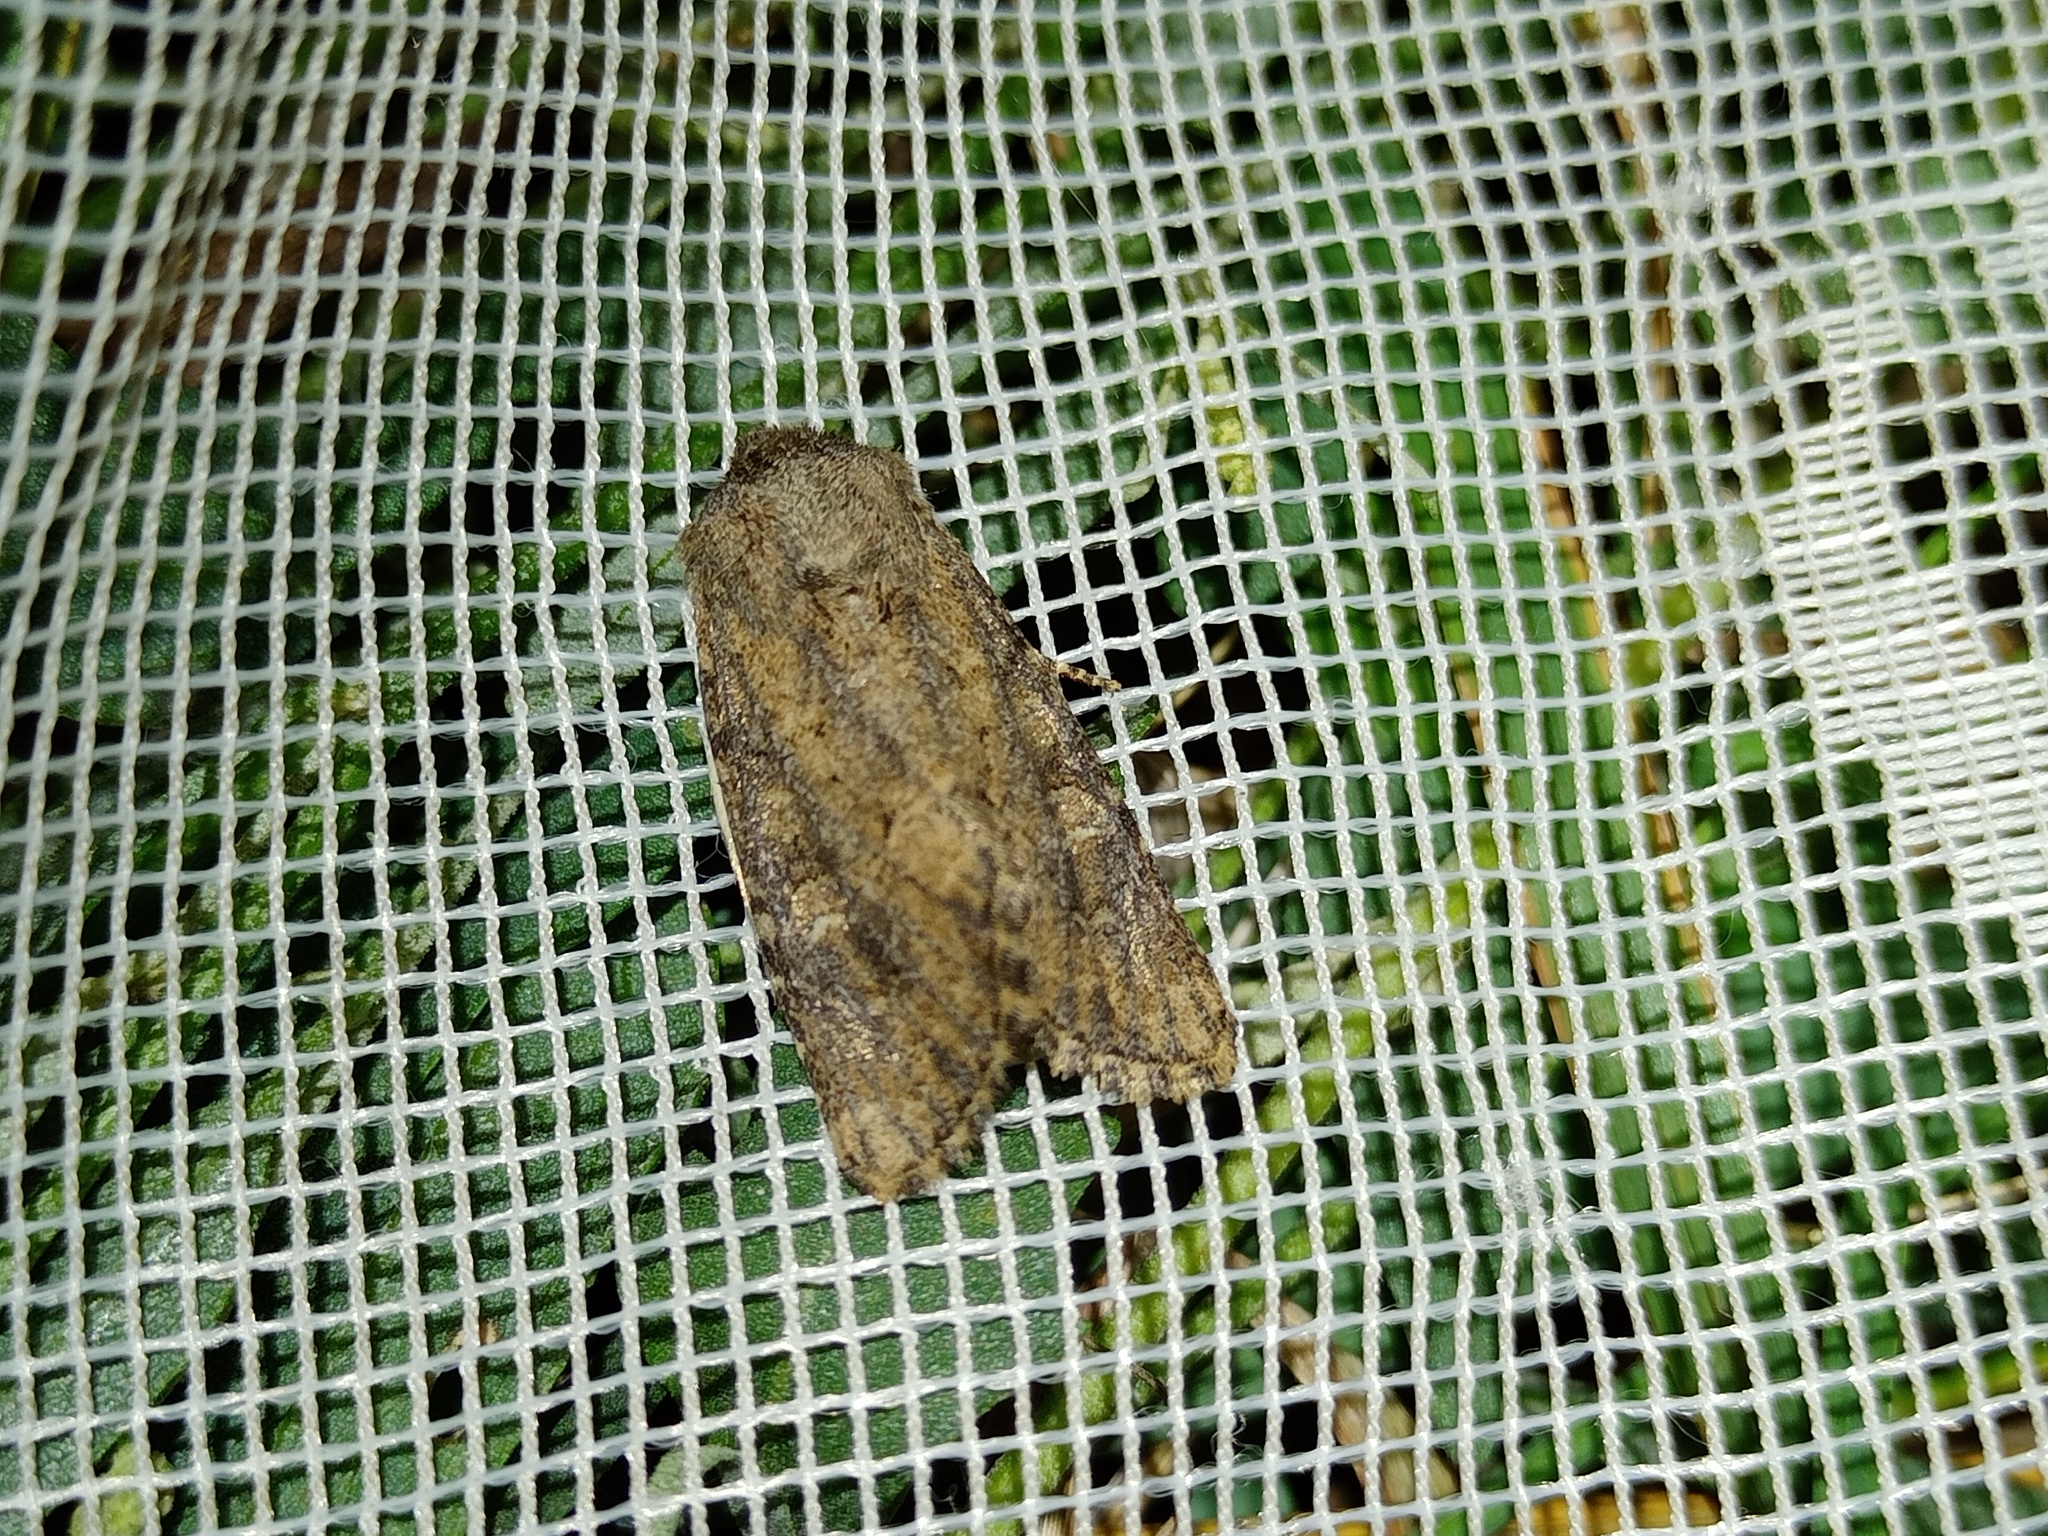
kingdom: Animalia
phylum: Arthropoda
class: Insecta
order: Lepidoptera
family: Noctuidae
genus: Luperina
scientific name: Luperina testacea
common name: Flounced rustic
